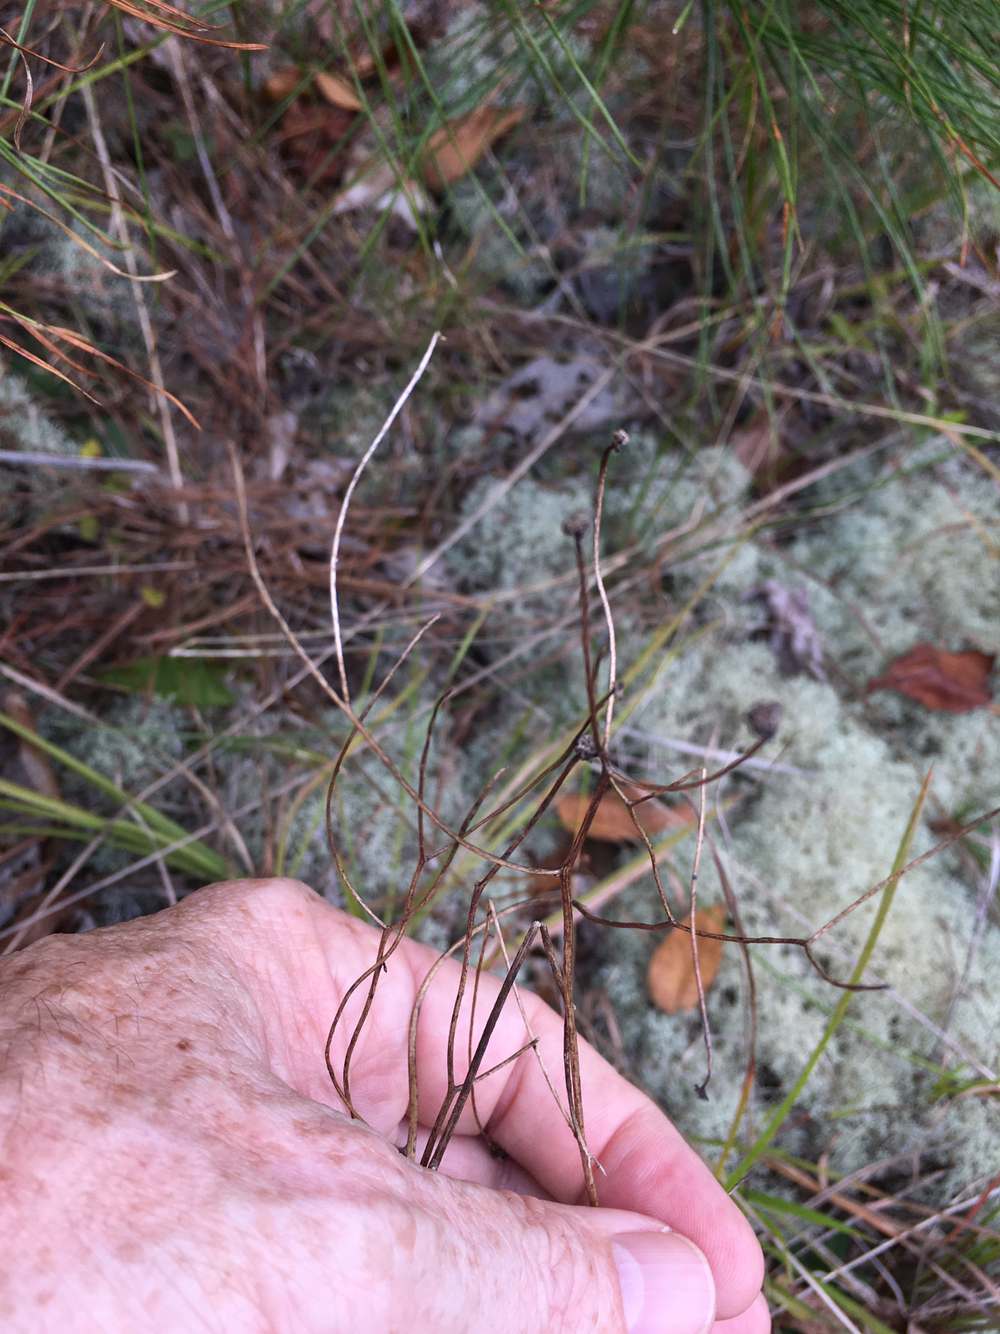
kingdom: Plantae
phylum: Tracheophyta
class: Magnoliopsida
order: Asterales
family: Asteraceae
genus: Hieracium
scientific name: Hieracium venosum
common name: Rattlesnake hawkweed
